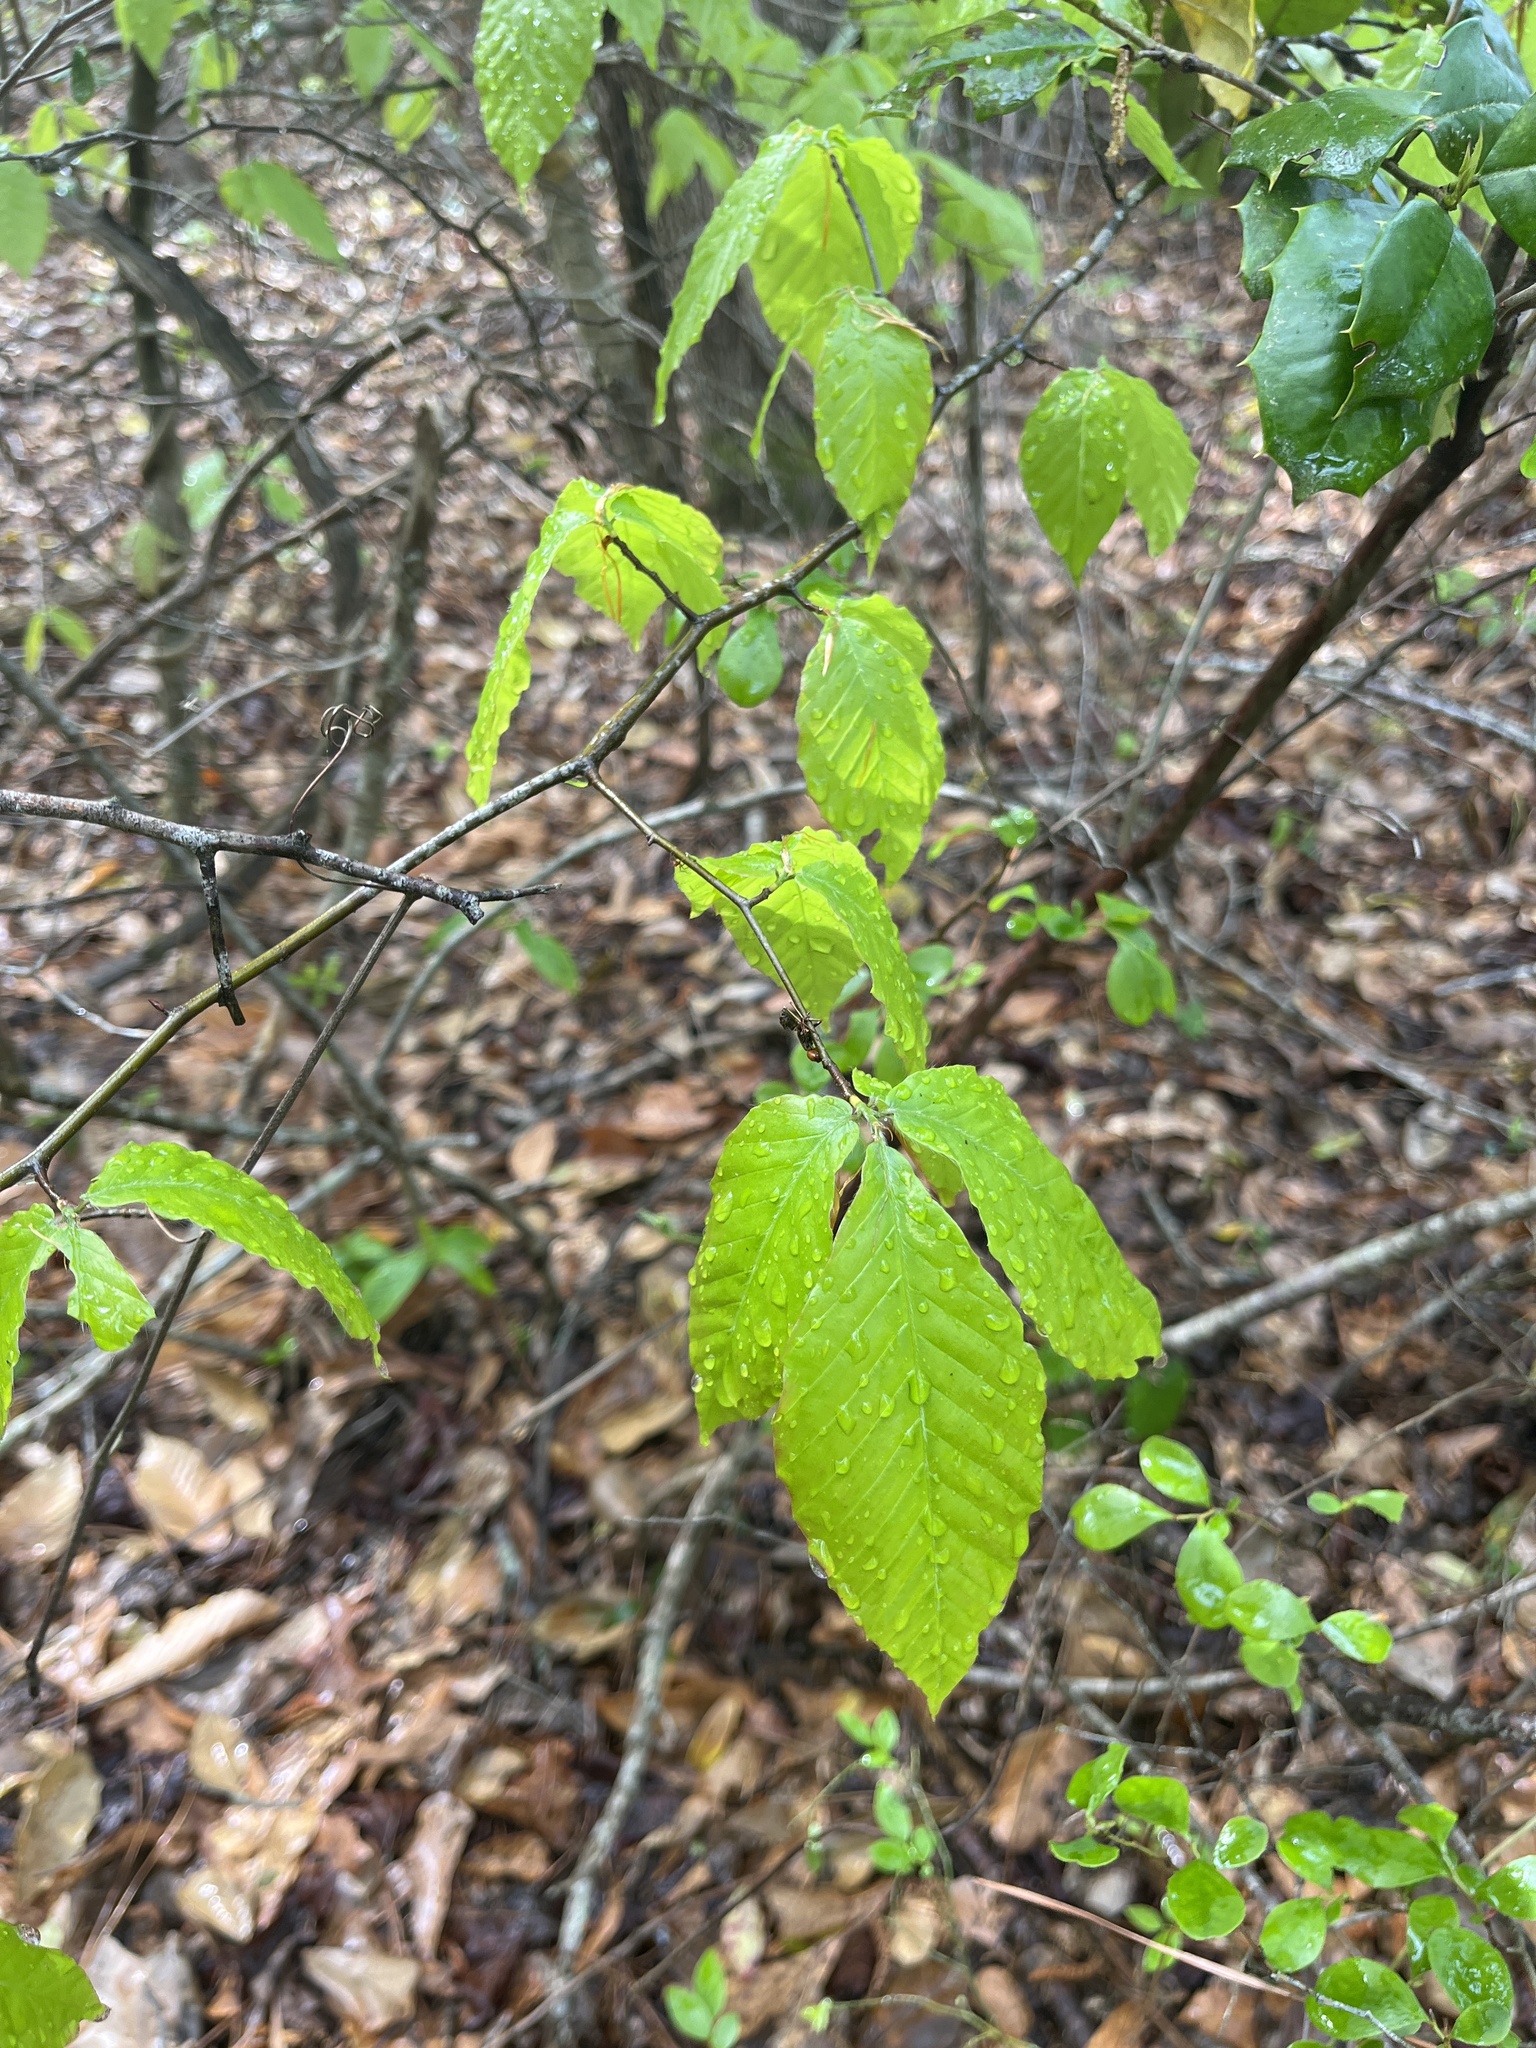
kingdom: Plantae
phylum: Tracheophyta
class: Magnoliopsida
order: Fagales
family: Fagaceae
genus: Fagus
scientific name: Fagus grandifolia
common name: American beech
